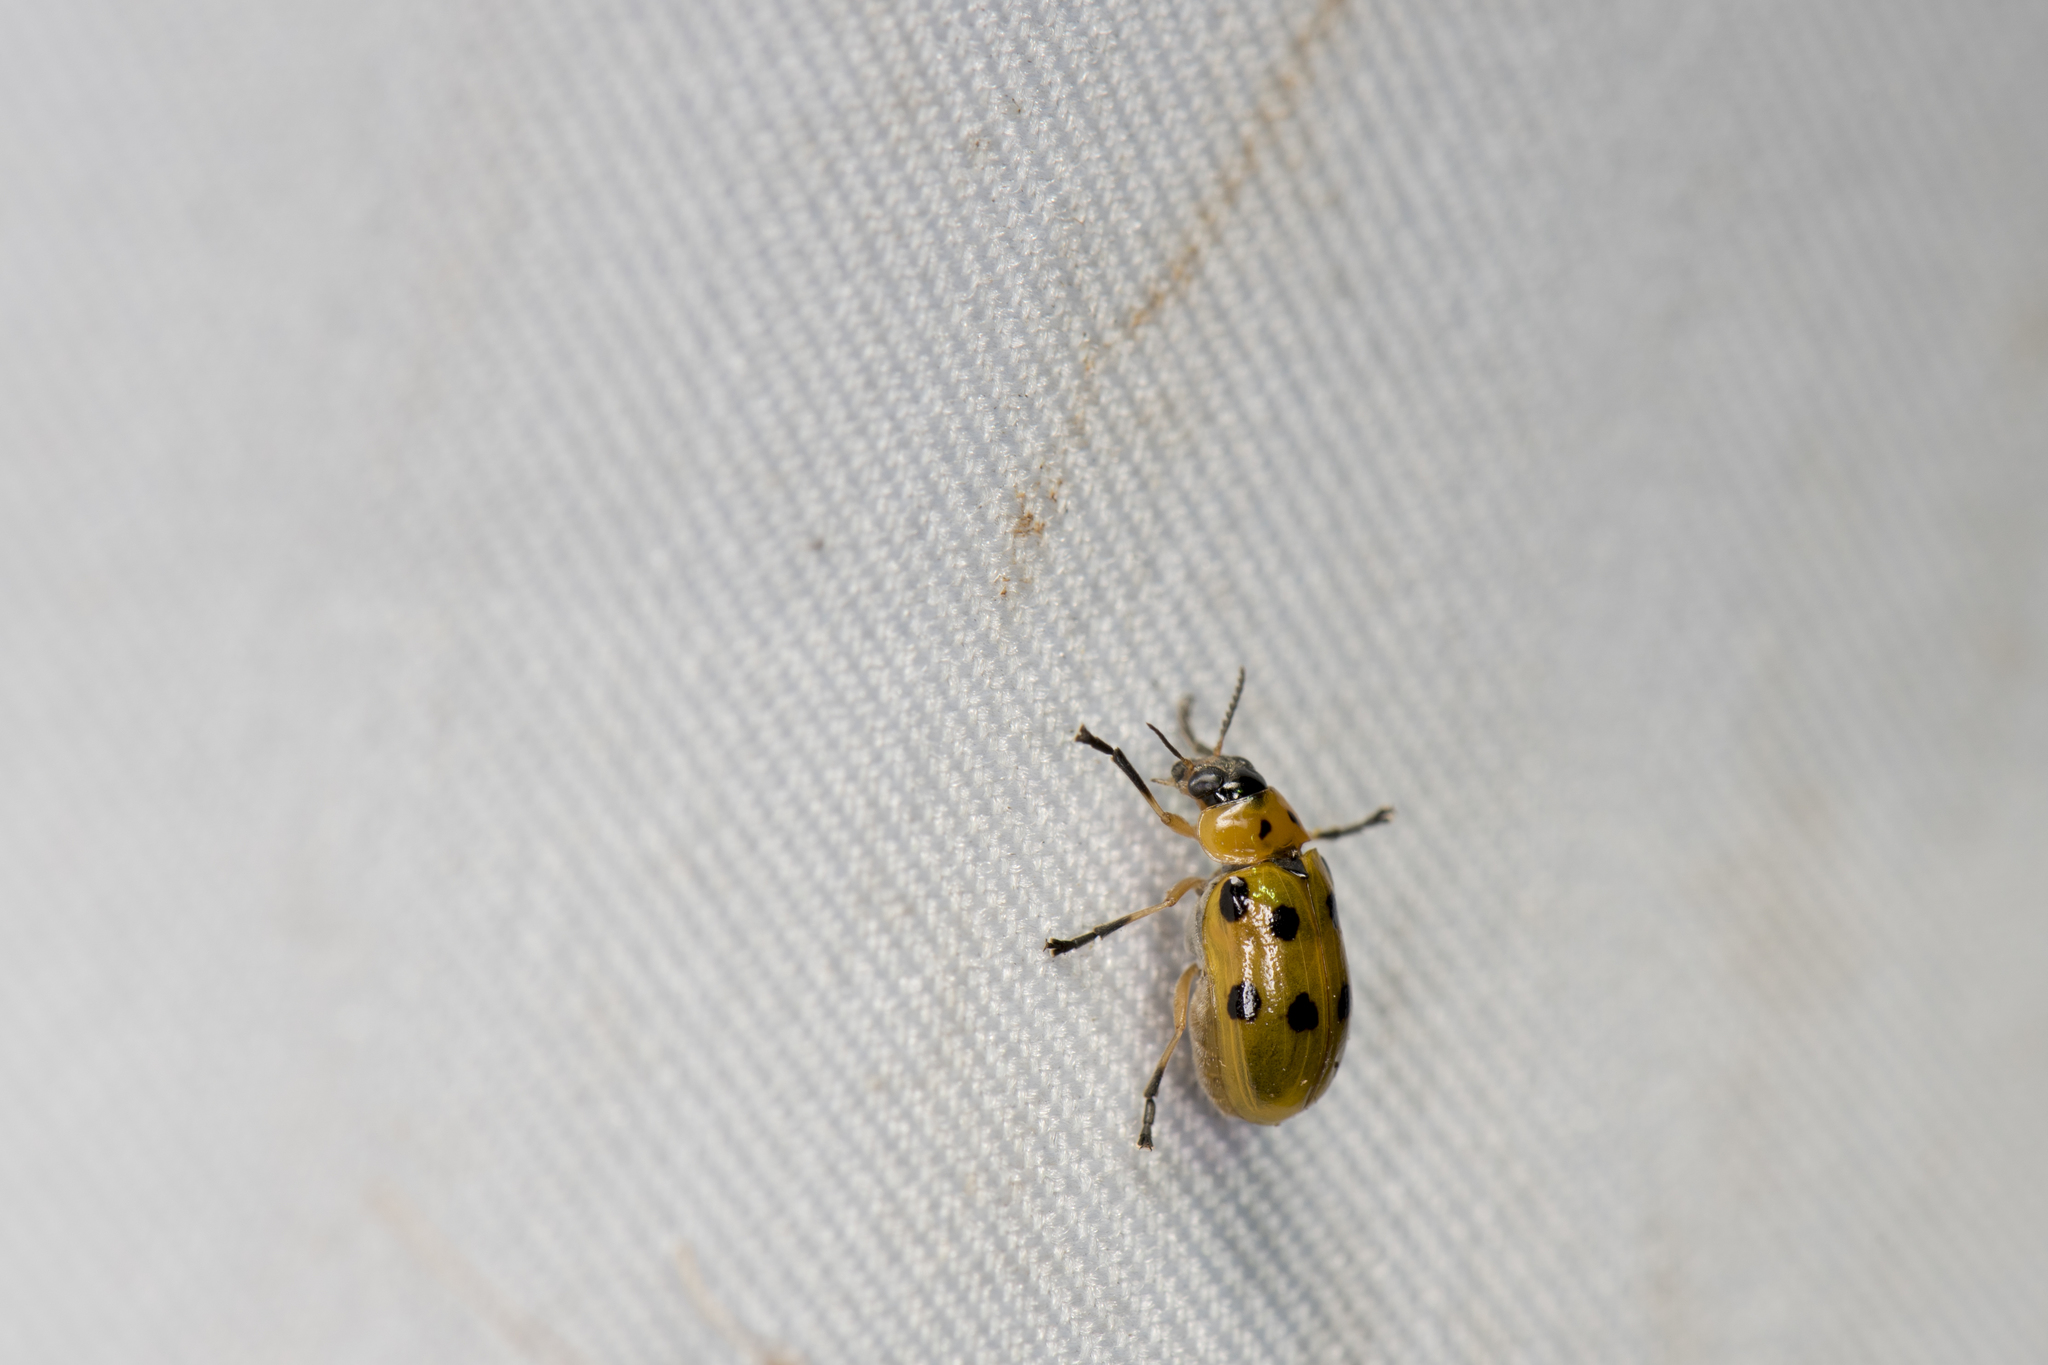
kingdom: Animalia
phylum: Arthropoda
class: Insecta
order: Coleoptera
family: Chrysomelidae
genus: Smaragdina
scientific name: Smaragdina octomaculata
